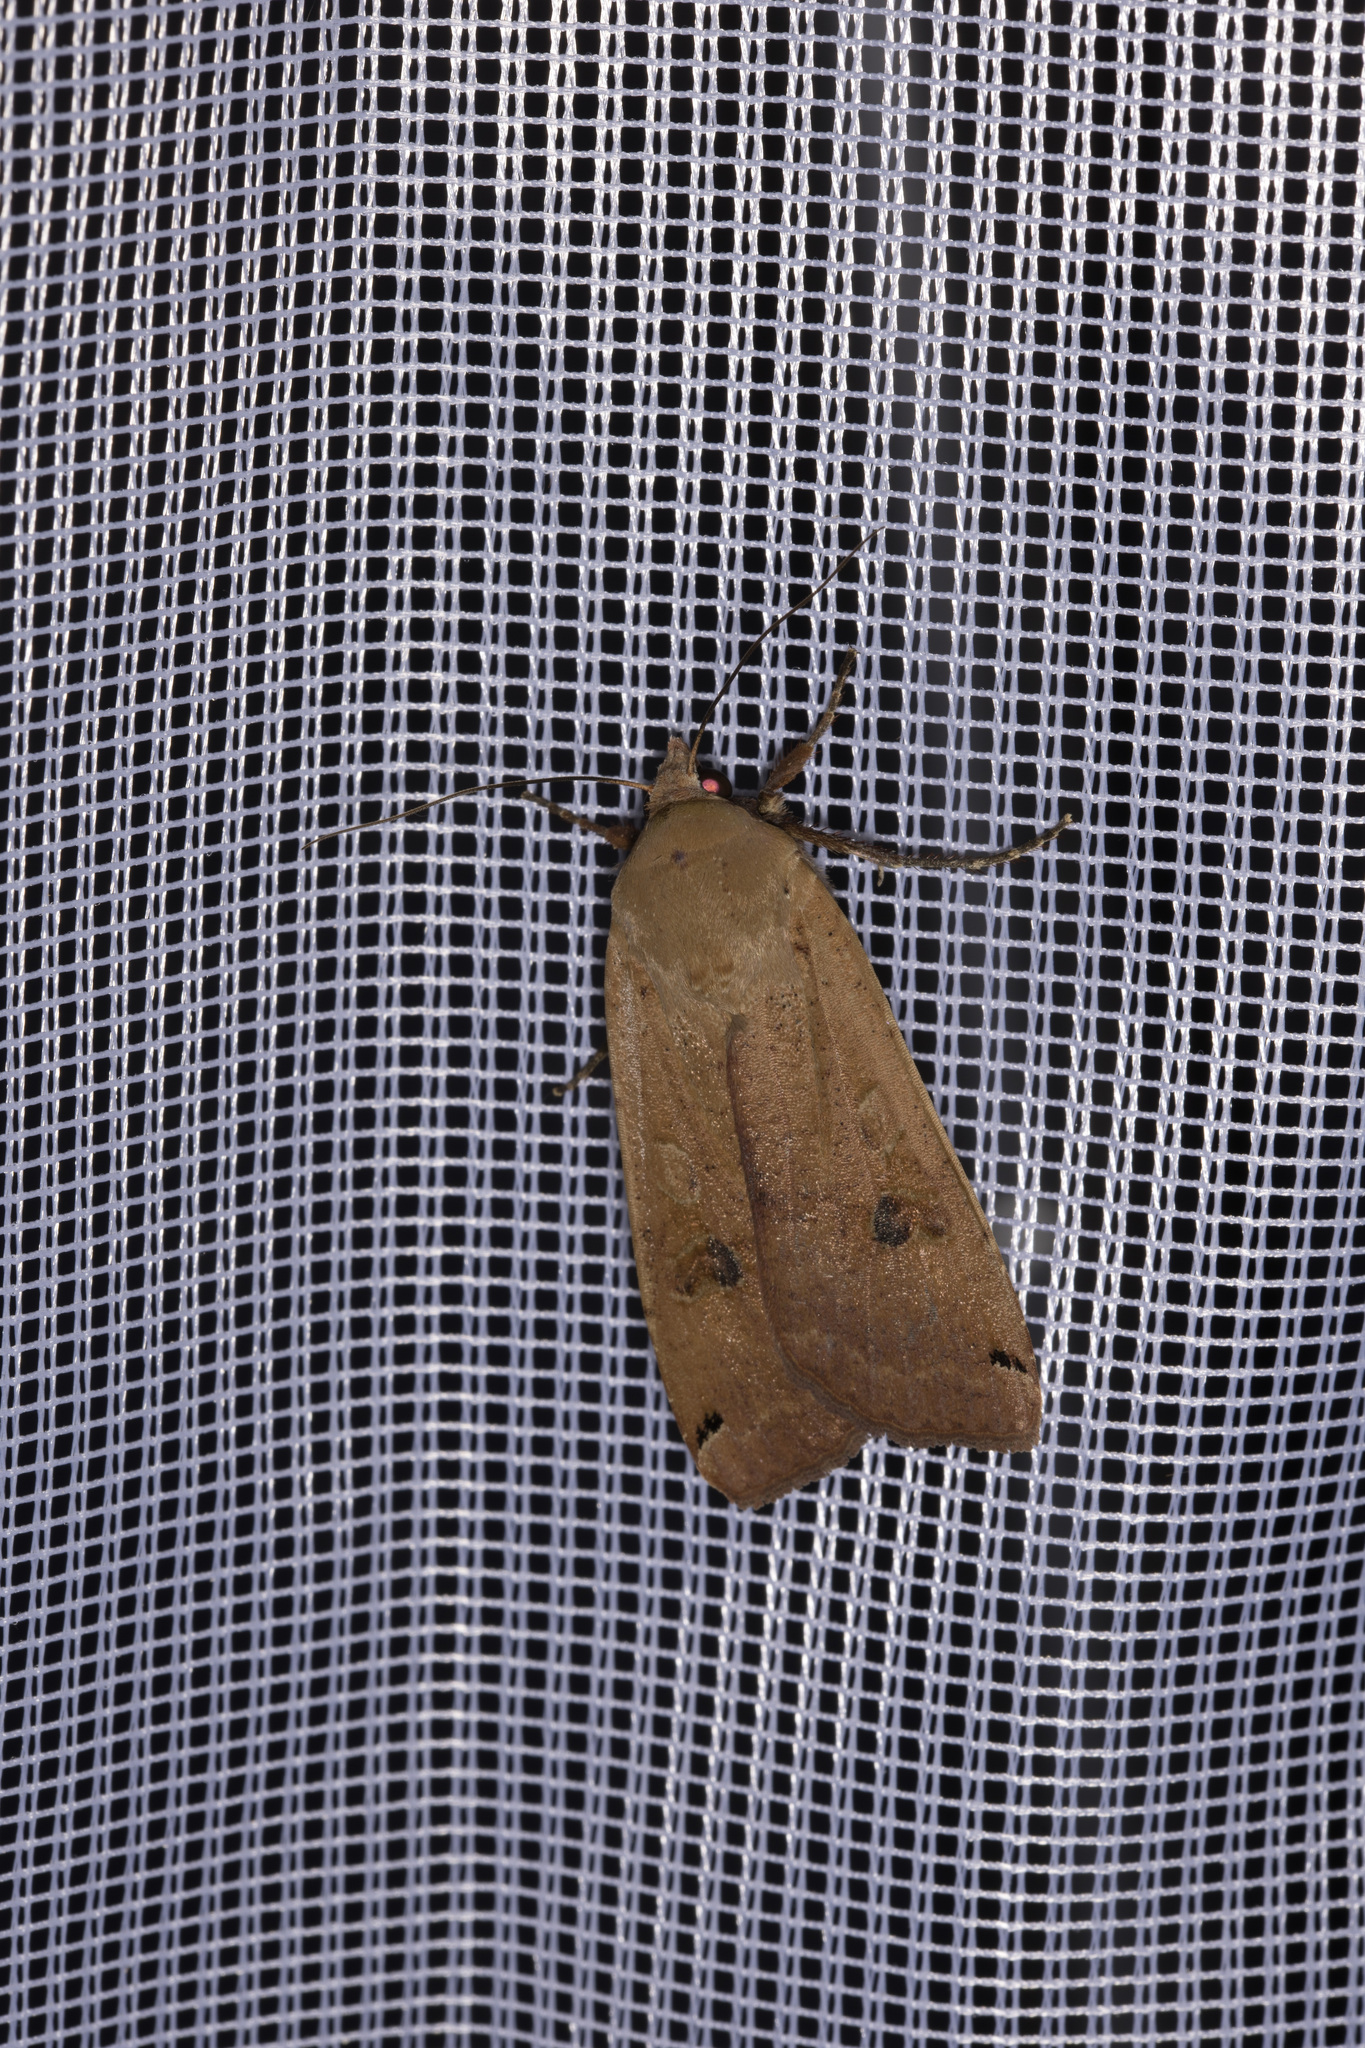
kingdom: Animalia
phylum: Arthropoda
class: Insecta
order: Lepidoptera
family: Noctuidae
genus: Noctua
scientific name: Noctua pronuba
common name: Large yellow underwing
